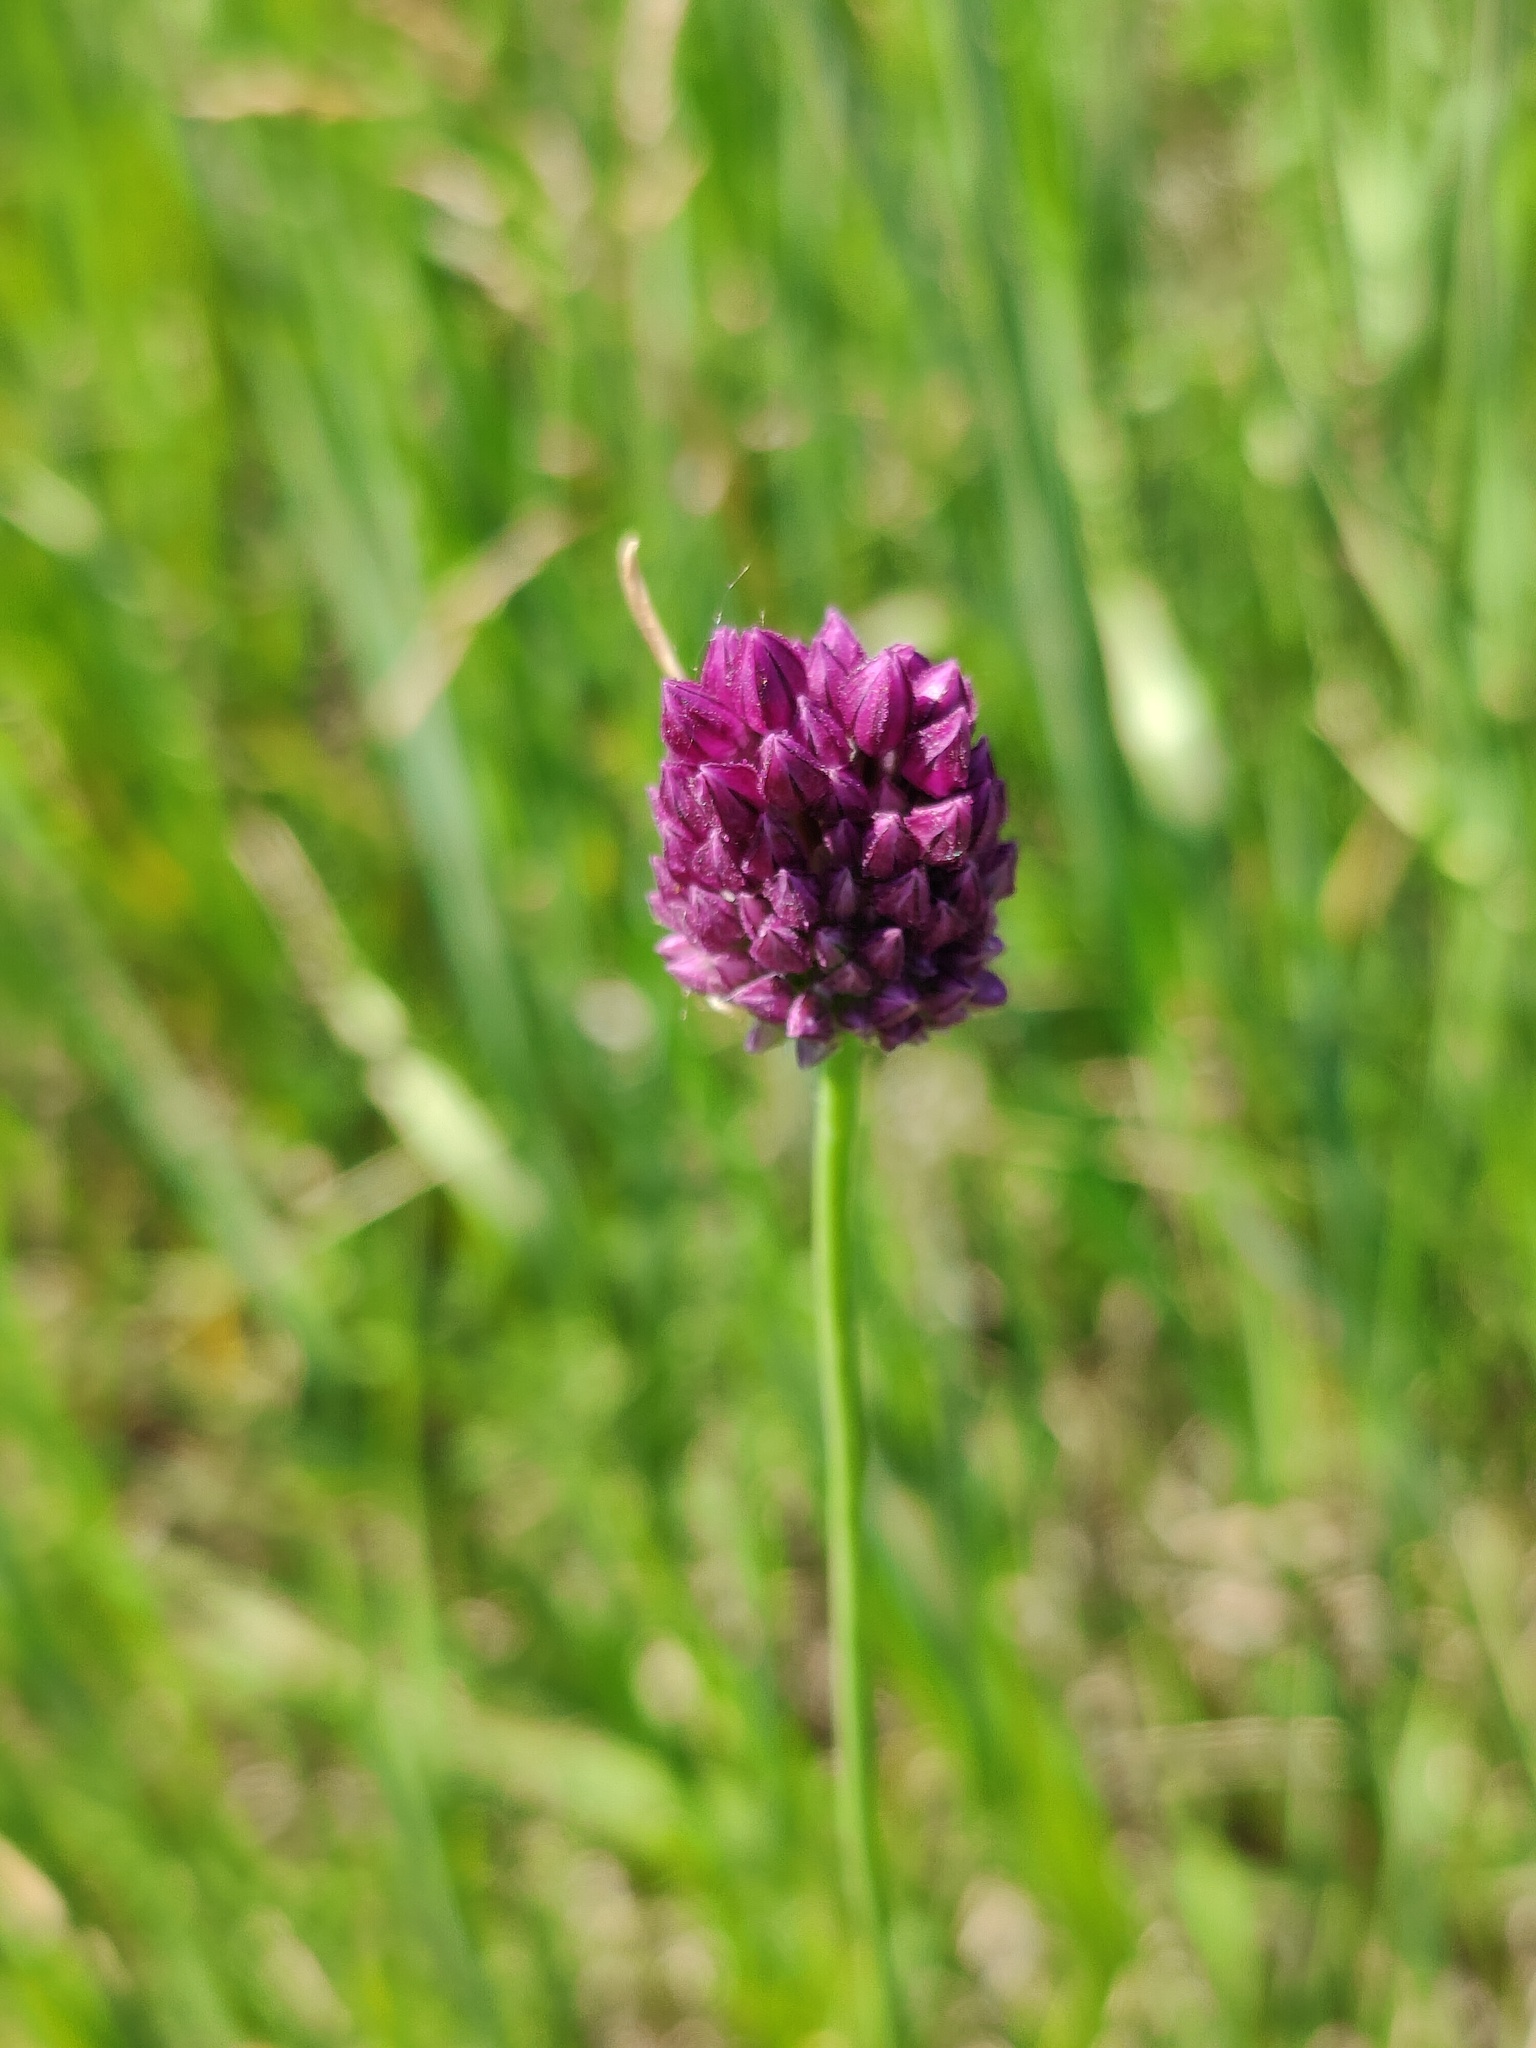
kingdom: Plantae
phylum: Tracheophyta
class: Liliopsida
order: Asparagales
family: Amaryllidaceae
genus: Allium
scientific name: Allium rotundum
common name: Sand leek
